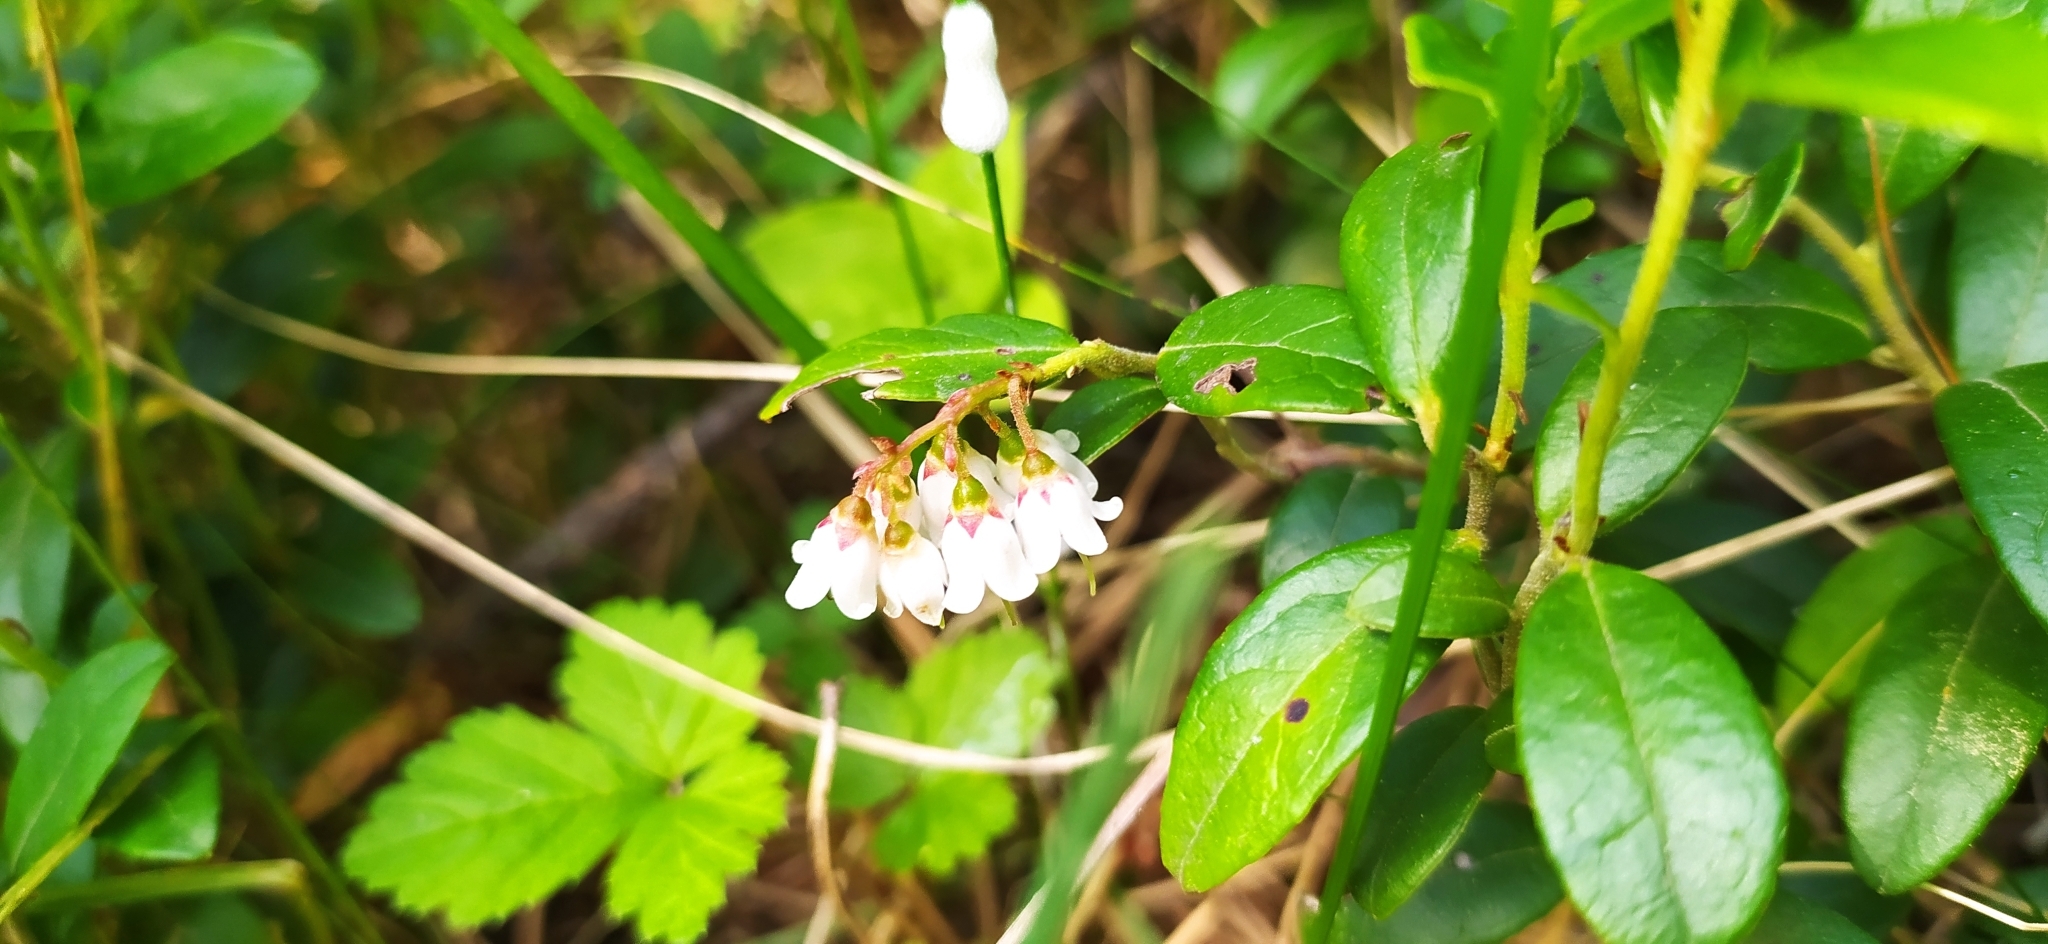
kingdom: Plantae
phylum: Tracheophyta
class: Magnoliopsida
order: Ericales
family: Ericaceae
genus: Vaccinium
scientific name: Vaccinium vitis-idaea
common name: Cowberry
